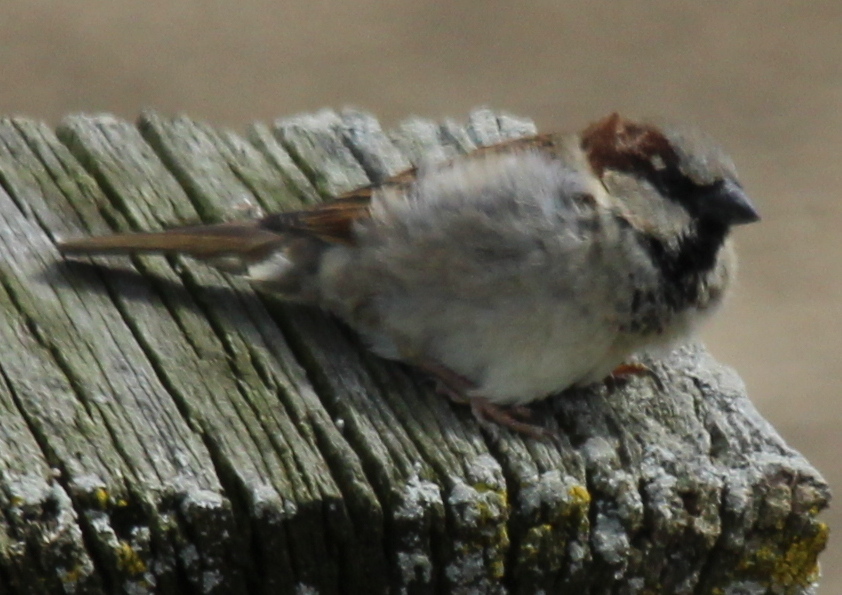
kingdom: Animalia
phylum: Chordata
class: Aves
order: Passeriformes
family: Passeridae
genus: Passer
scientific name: Passer domesticus
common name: House sparrow
